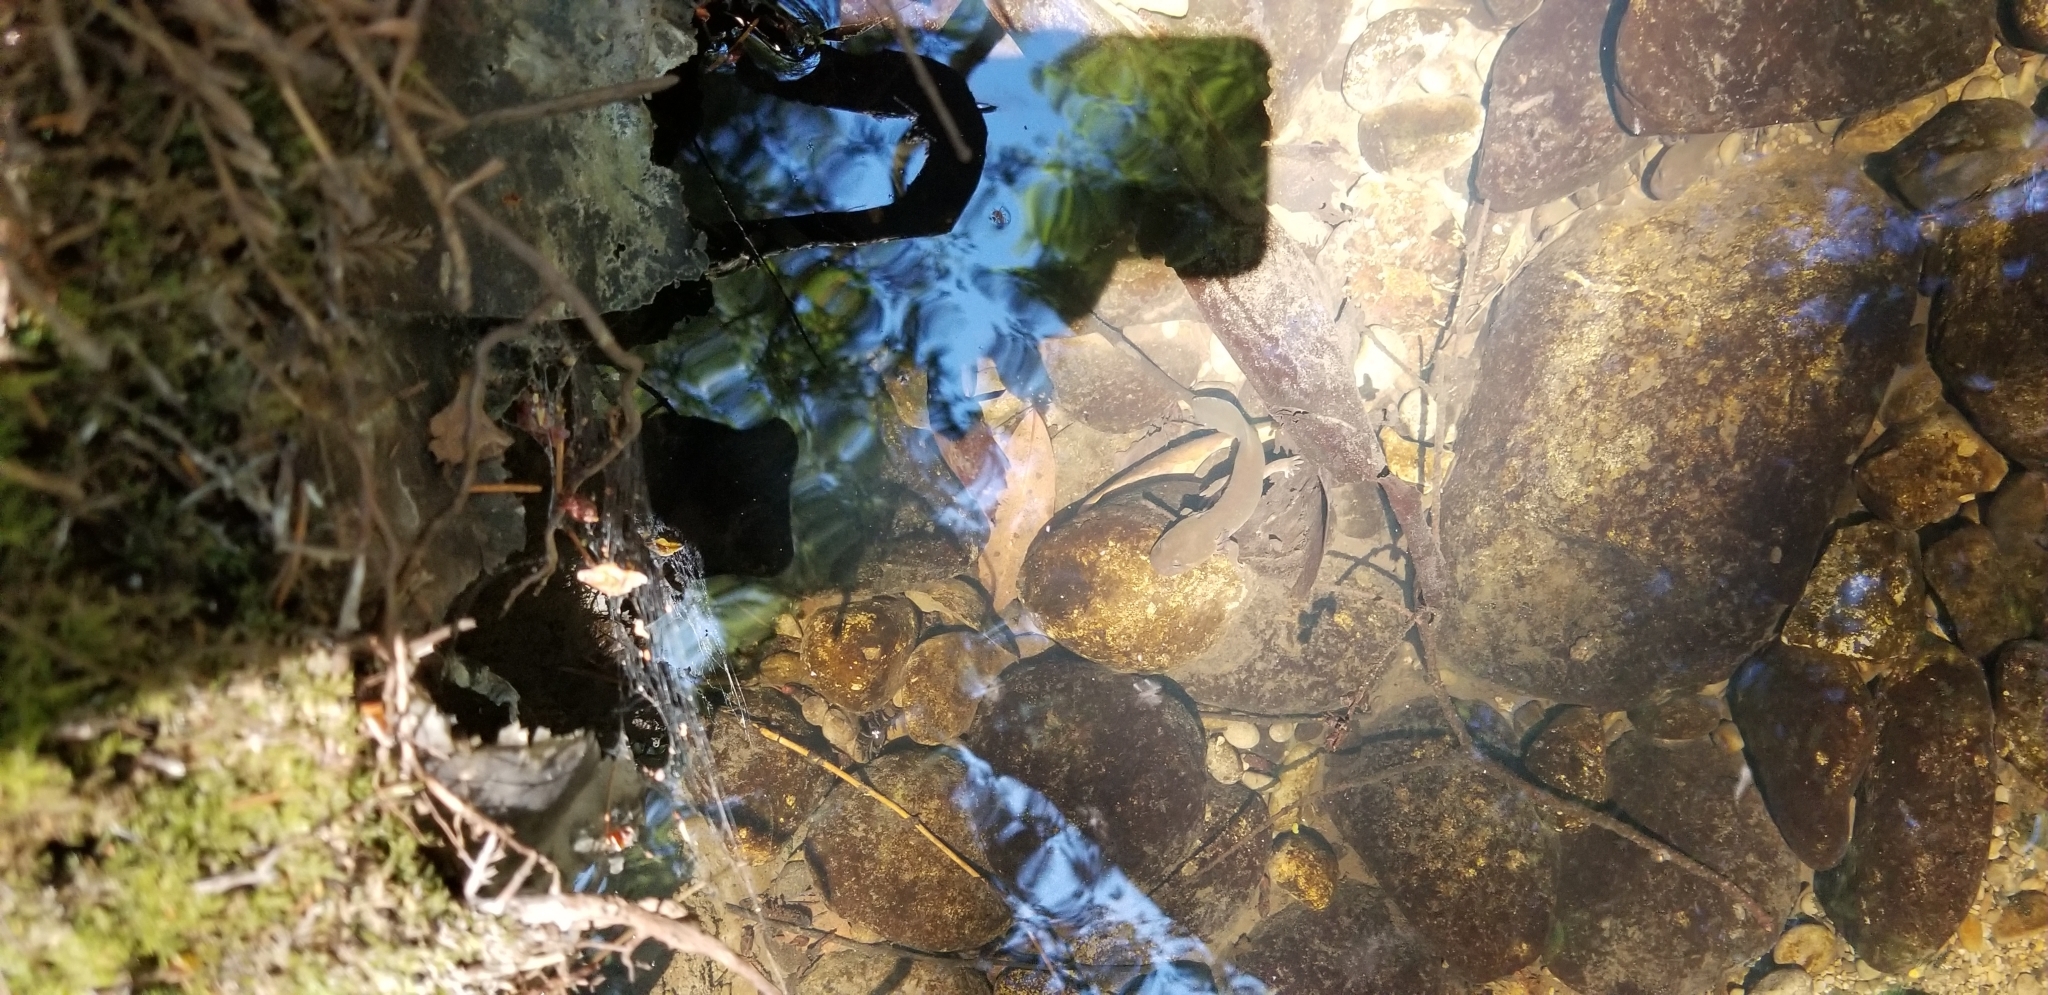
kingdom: Animalia
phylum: Chordata
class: Amphibia
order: Caudata
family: Ambystomatidae
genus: Dicamptodon
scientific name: Dicamptodon ensatus
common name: California giant salamander
